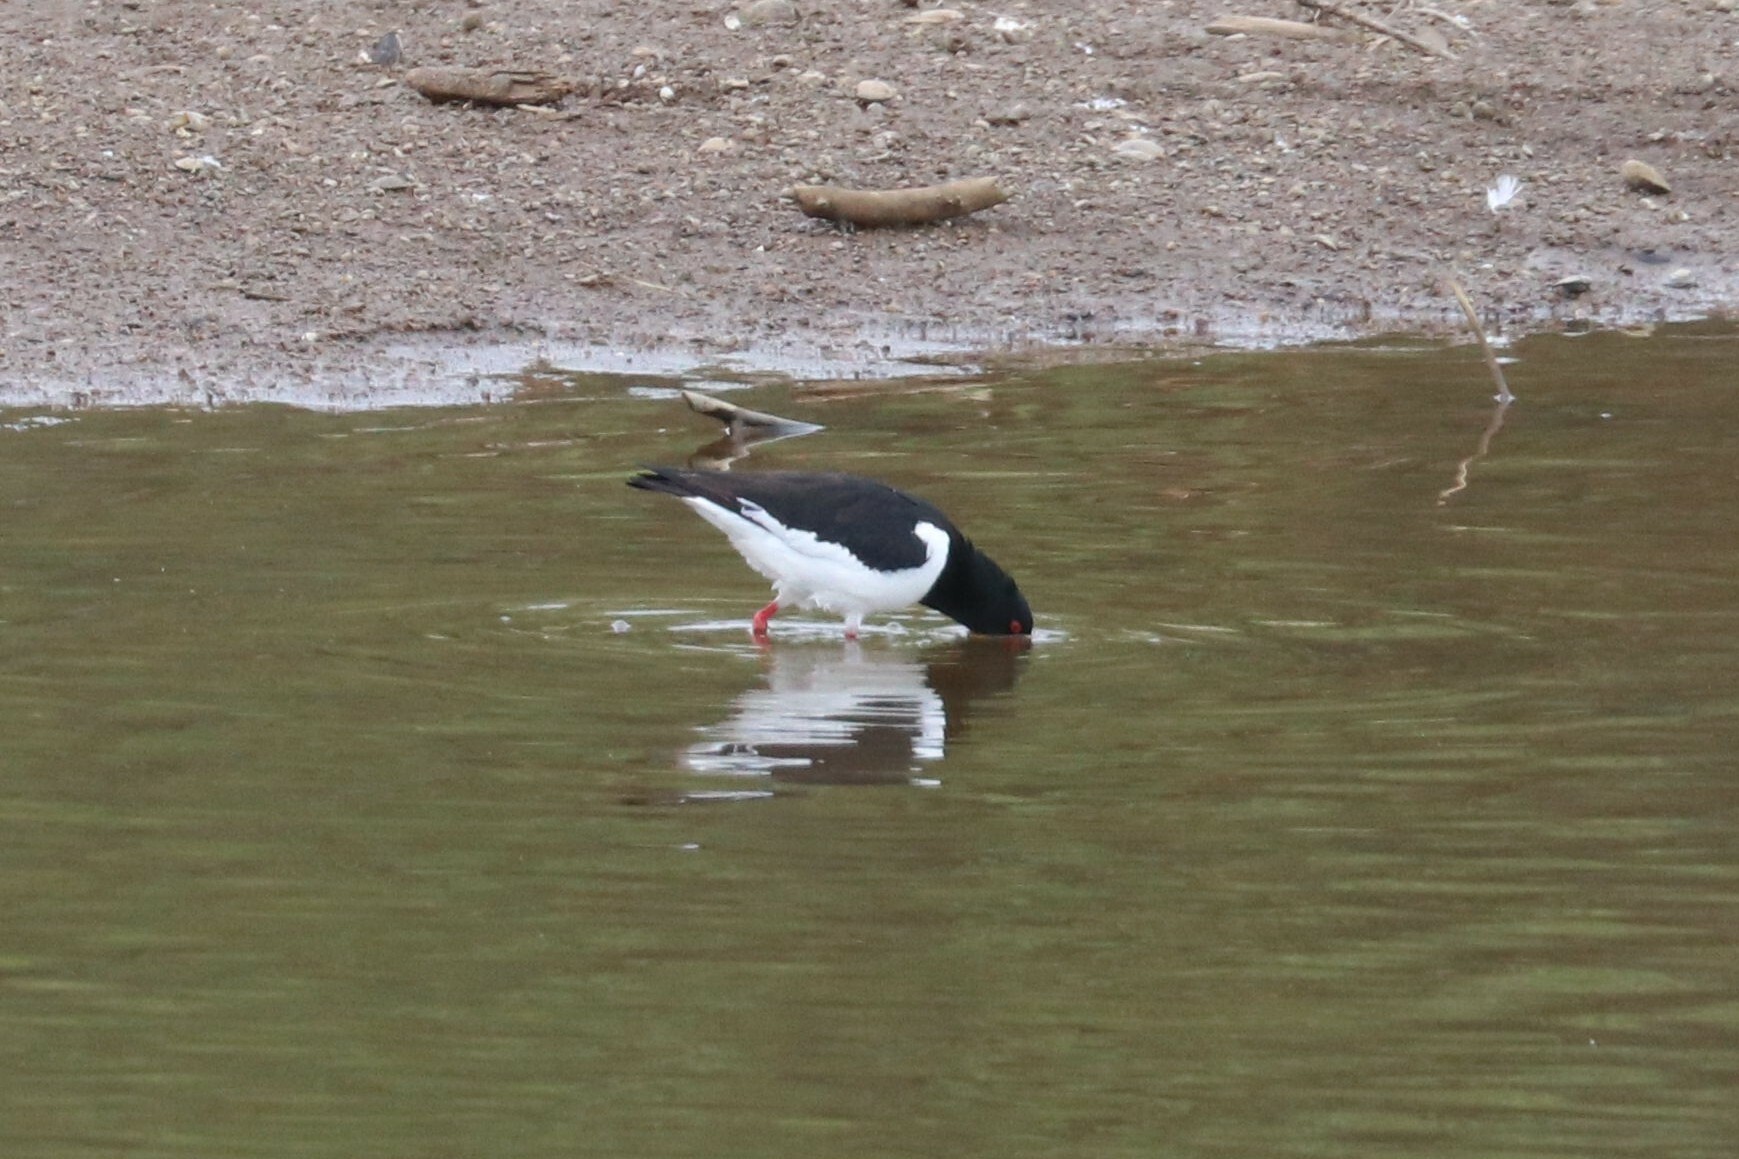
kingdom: Animalia
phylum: Chordata
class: Aves
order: Charadriiformes
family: Haematopodidae
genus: Haematopus
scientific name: Haematopus ostralegus
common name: Eurasian oystercatcher
